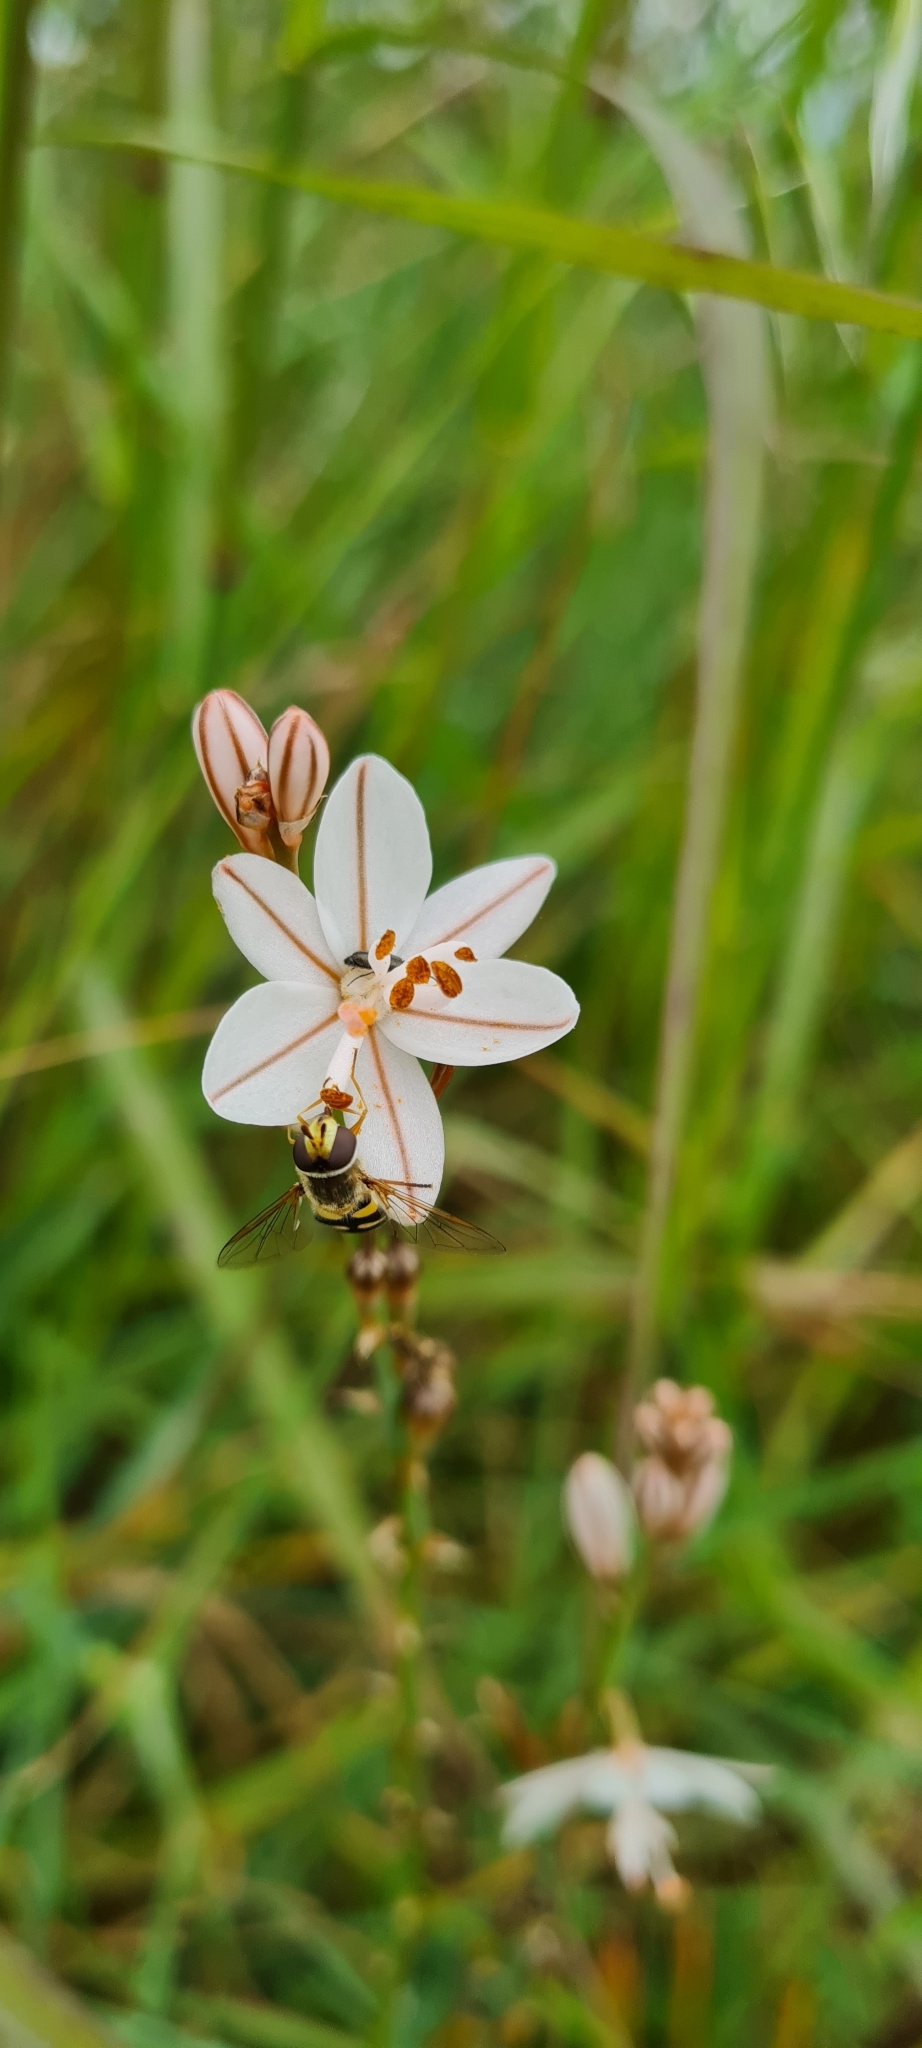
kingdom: Animalia
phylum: Arthropoda
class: Insecta
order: Diptera
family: Syrphidae
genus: Eupeodes
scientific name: Eupeodes corollae
